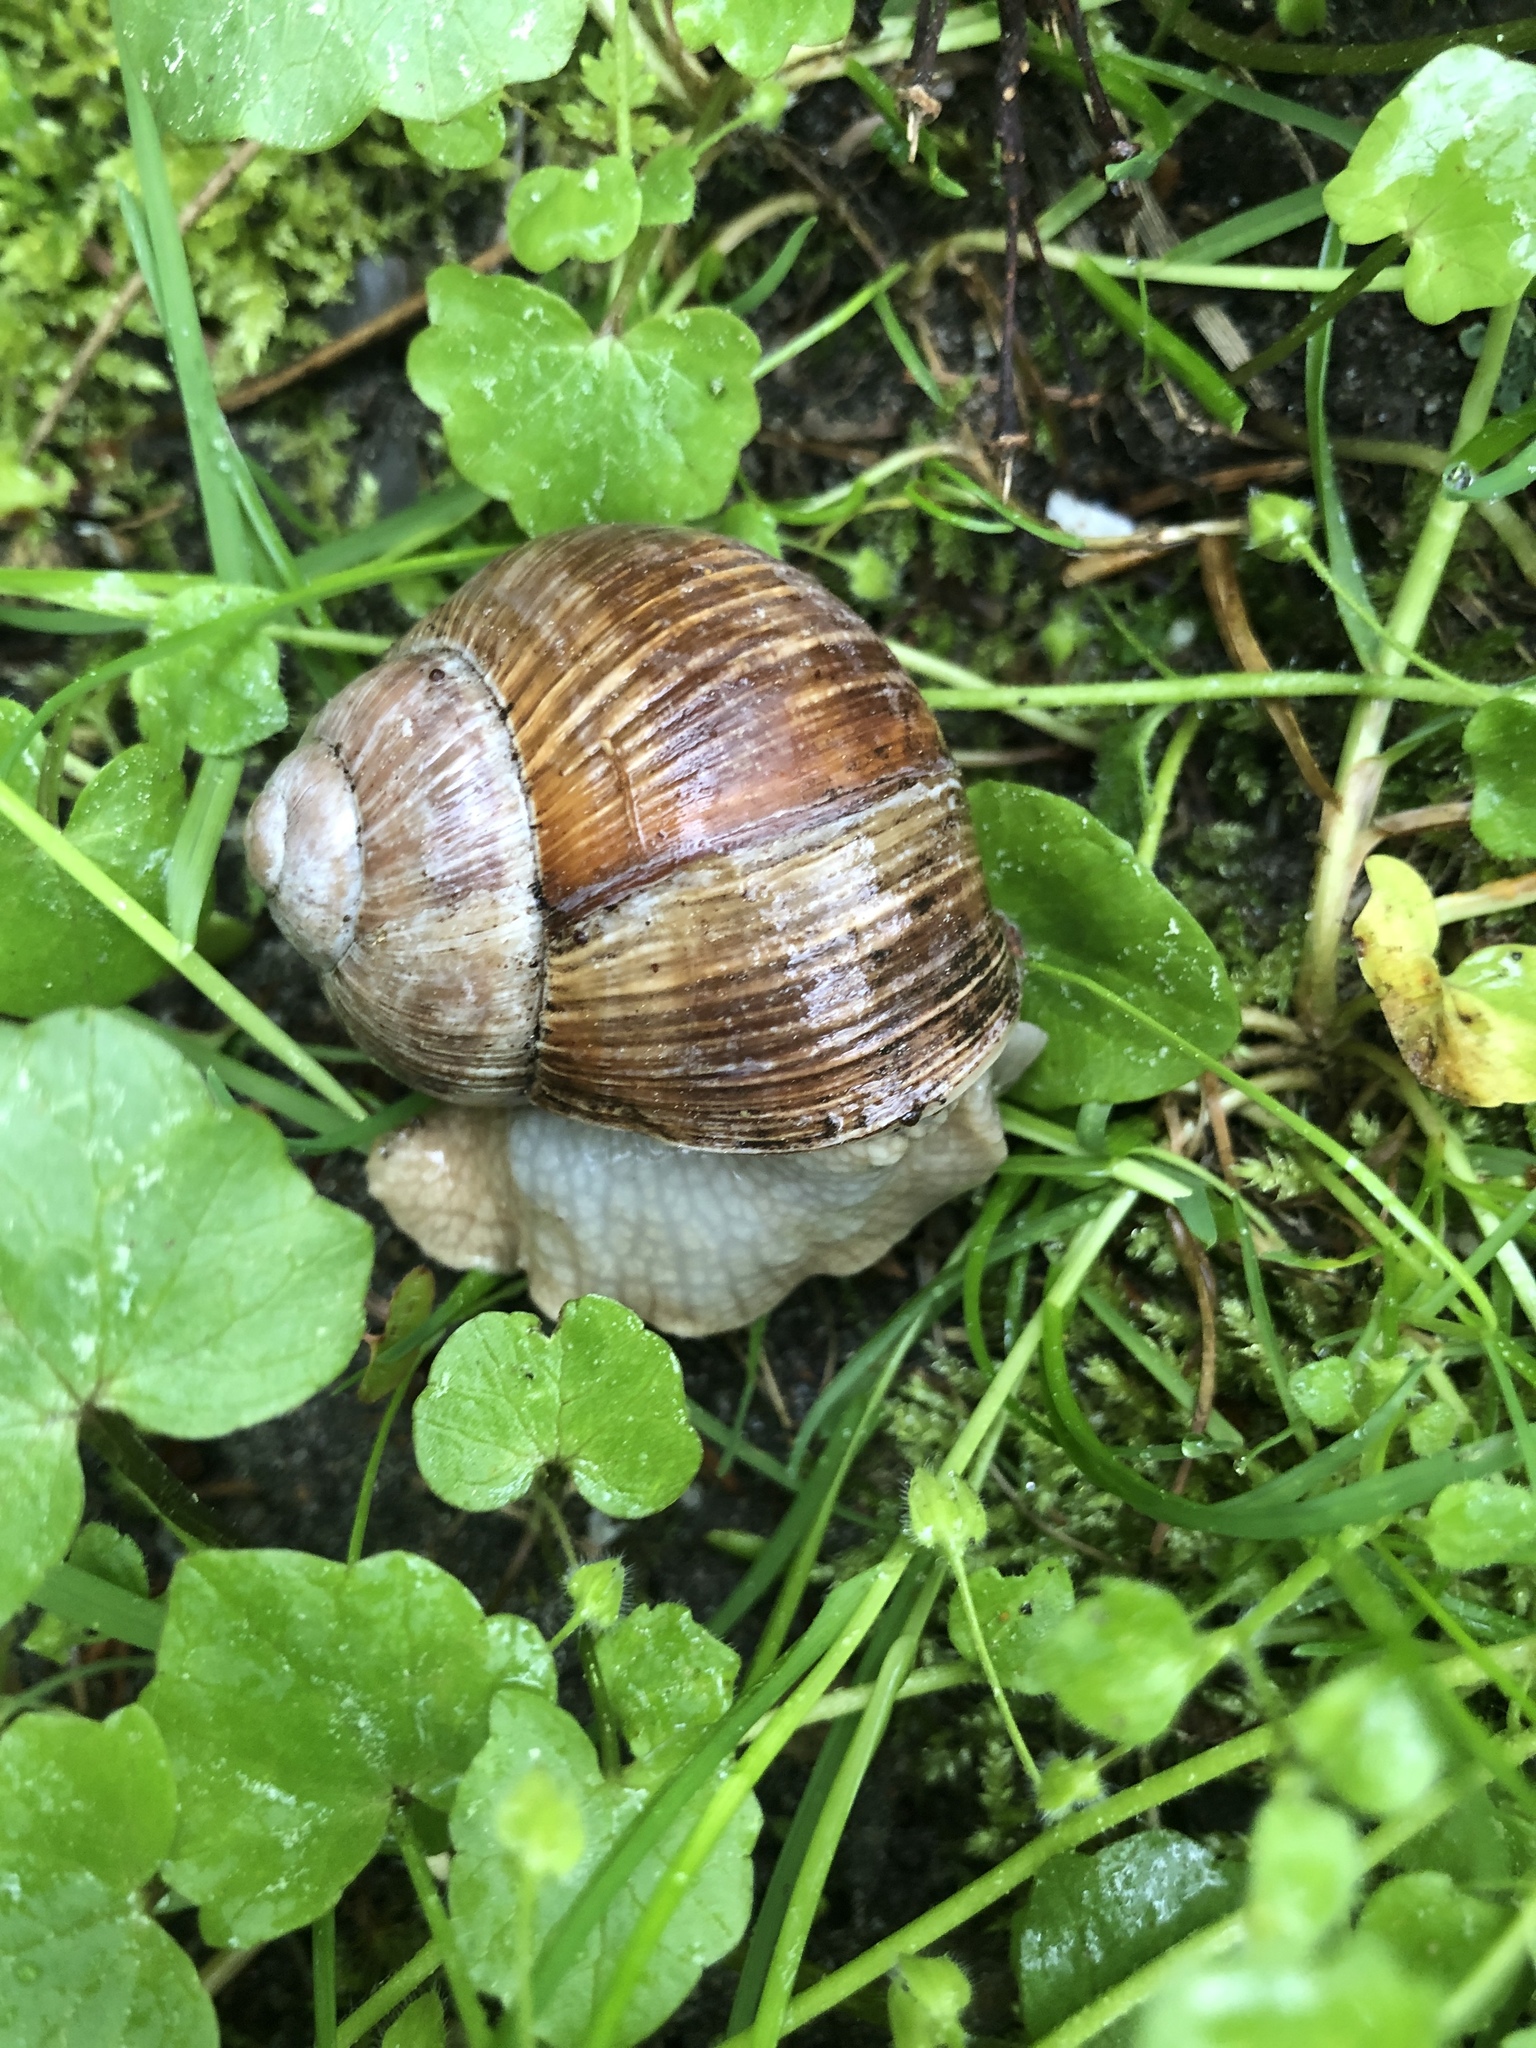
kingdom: Animalia
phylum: Mollusca
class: Gastropoda
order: Stylommatophora
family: Helicidae
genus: Helix
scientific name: Helix pomatia
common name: Roman snail
